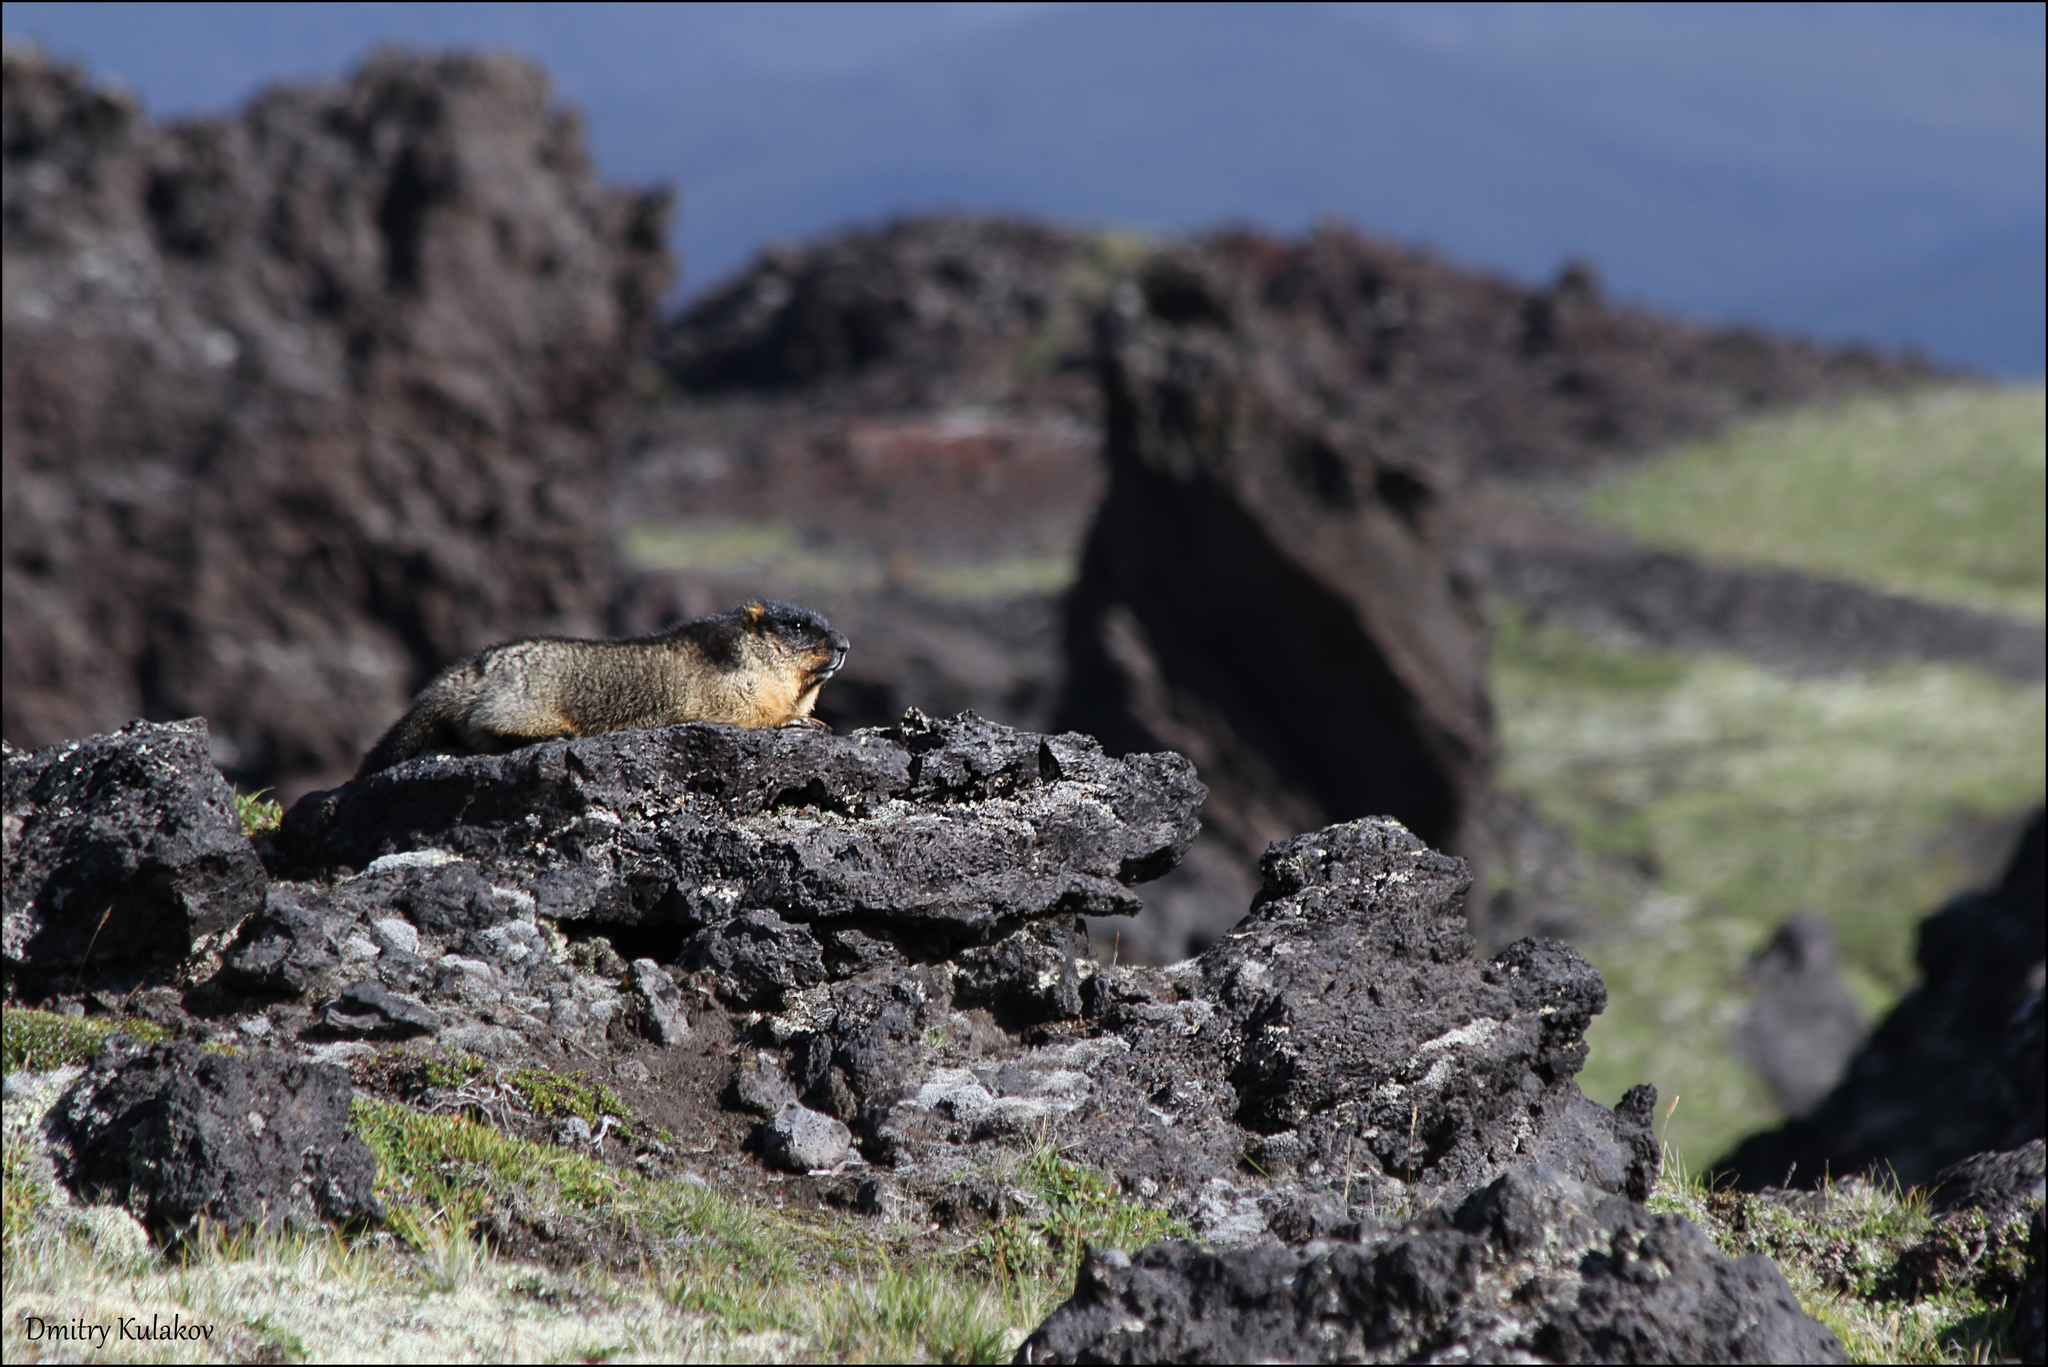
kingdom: Animalia
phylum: Chordata
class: Mammalia
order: Rodentia
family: Sciuridae
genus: Marmota
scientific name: Marmota camtschatica
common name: Black-capped marmot
